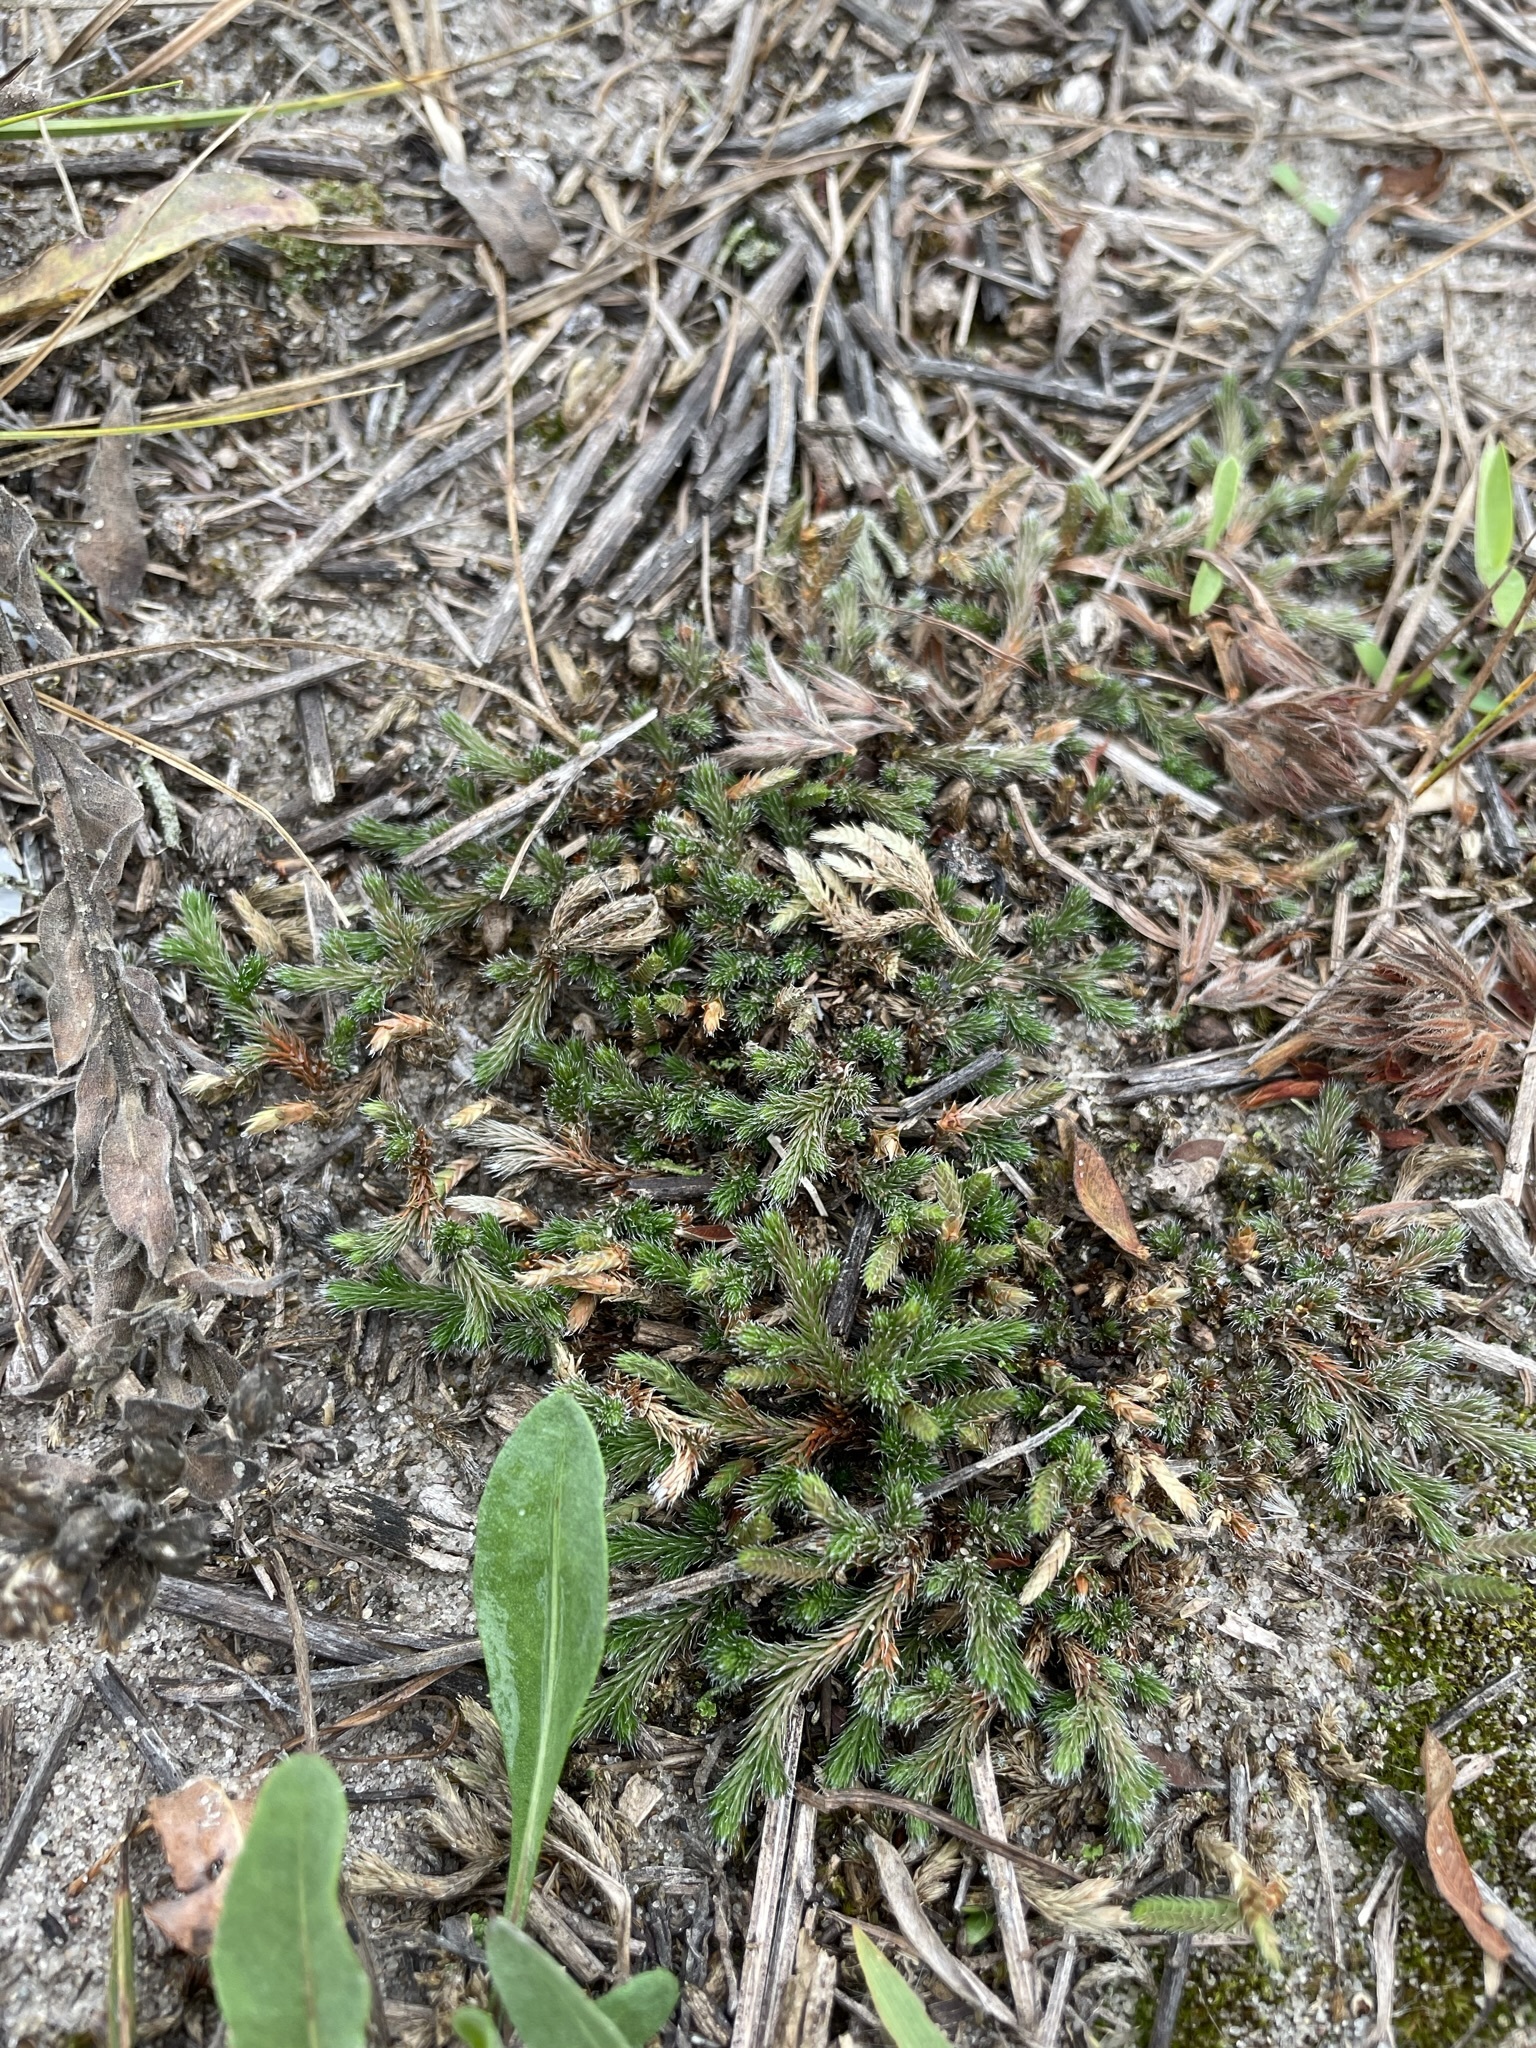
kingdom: Plantae
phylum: Tracheophyta
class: Lycopodiopsida
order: Selaginellales
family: Selaginellaceae
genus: Selaginella
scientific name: Selaginella rupestris
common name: Dwarf spikemoss
